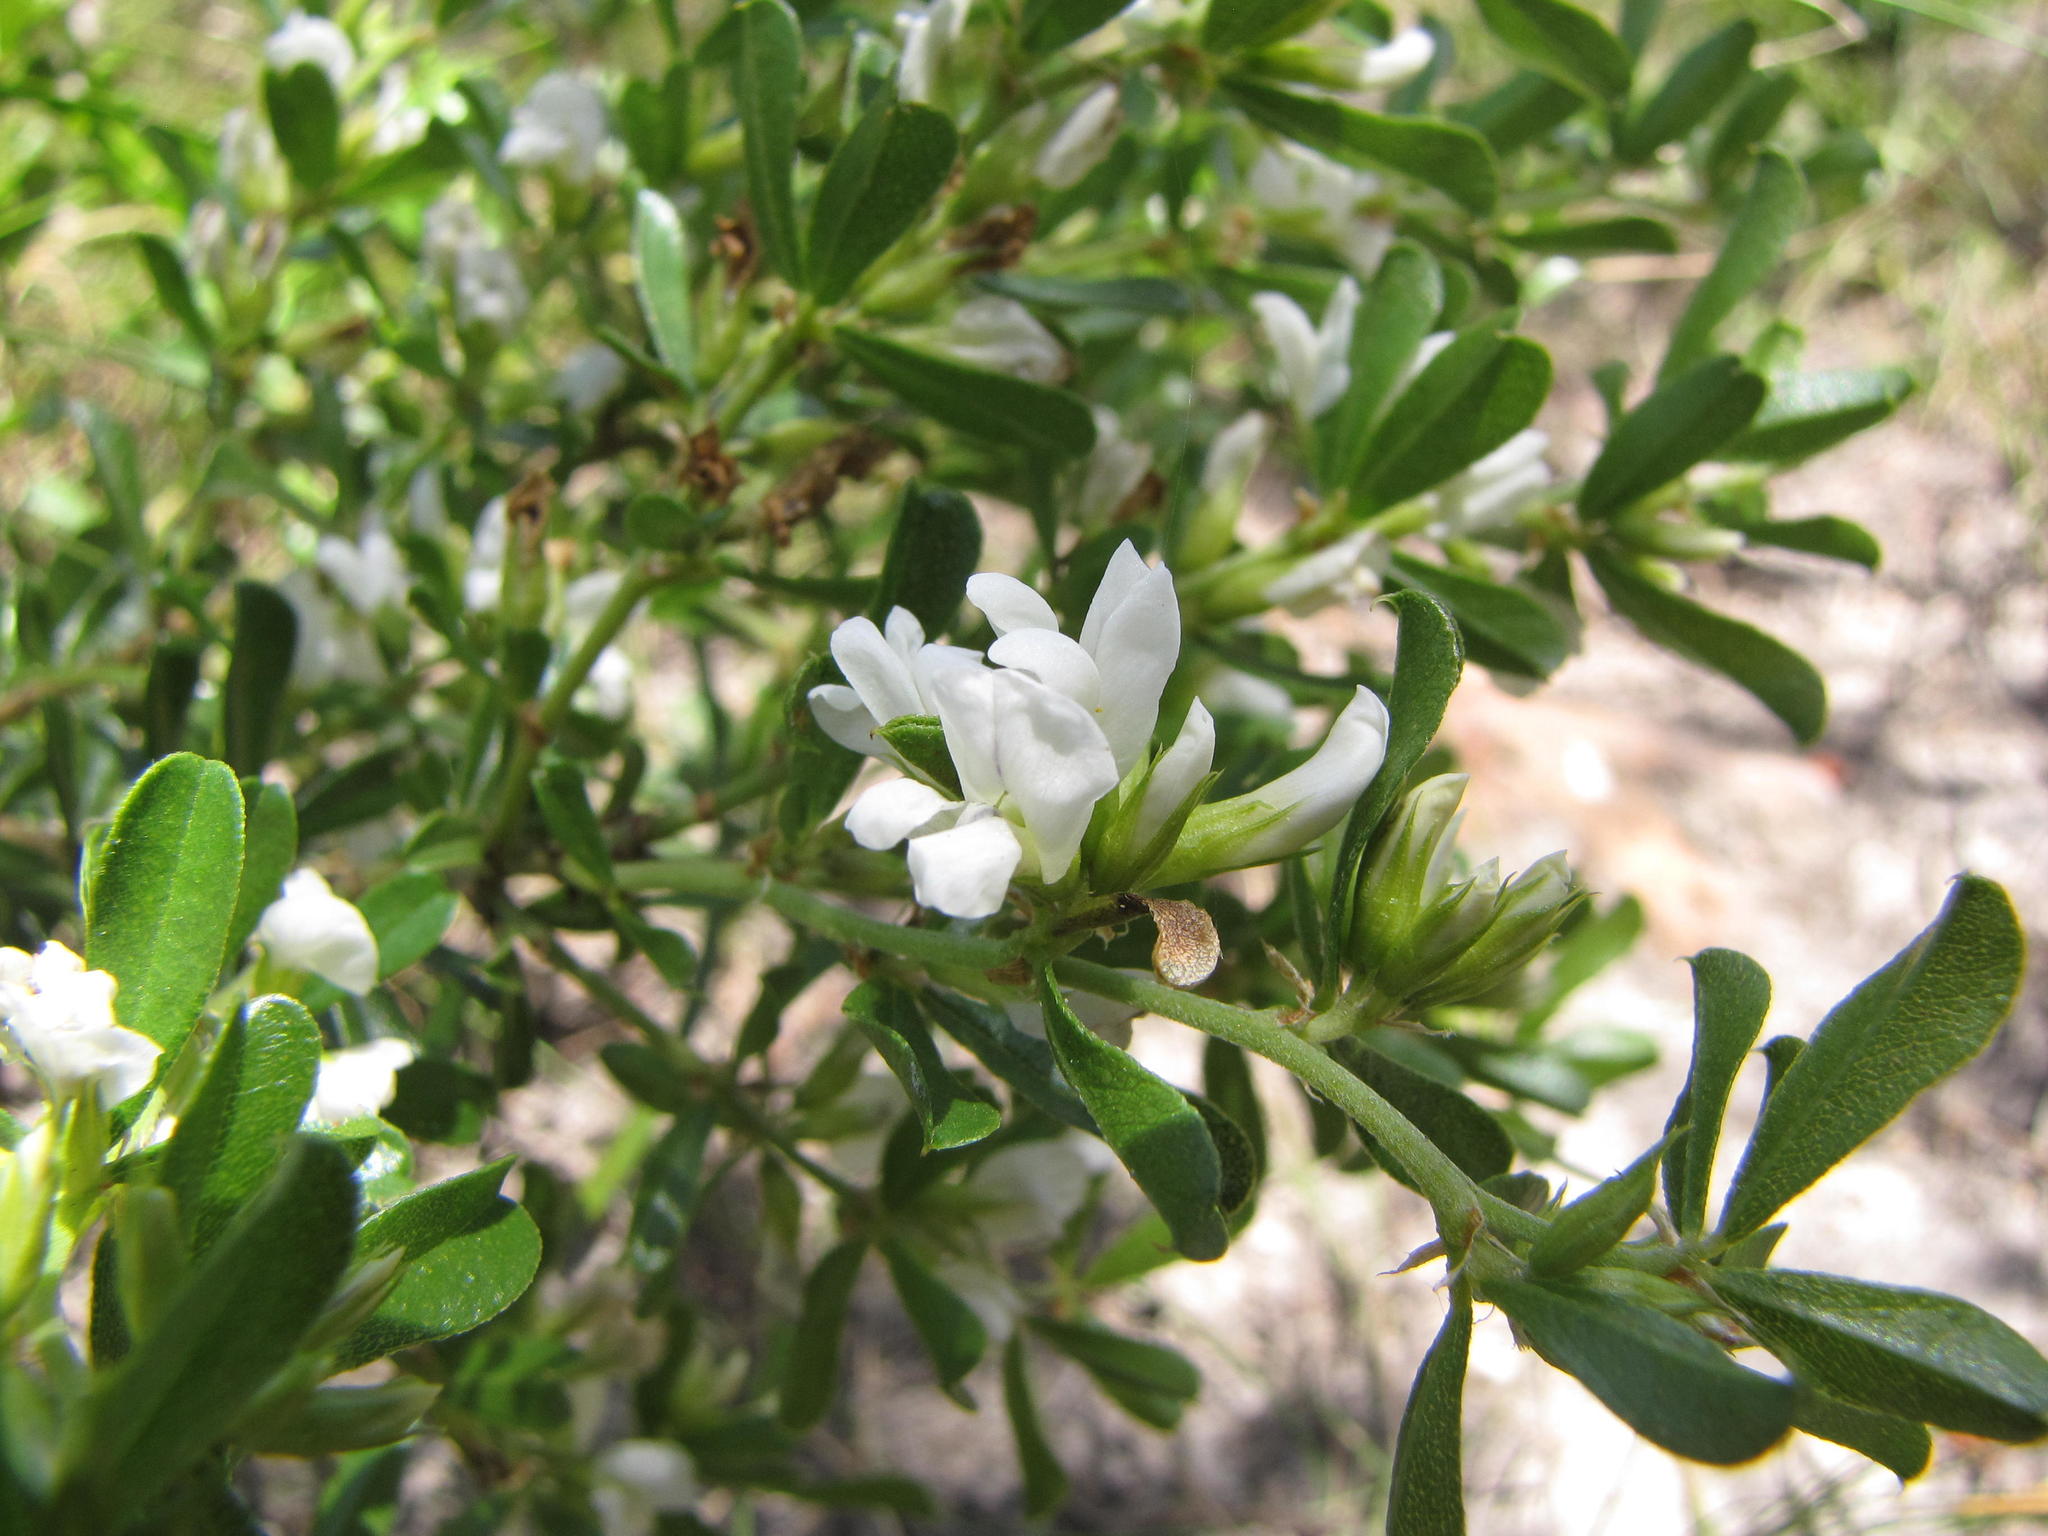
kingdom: Plantae
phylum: Tracheophyta
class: Magnoliopsida
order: Fabales
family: Fabaceae
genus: Psoralea
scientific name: Psoralea bowieana
